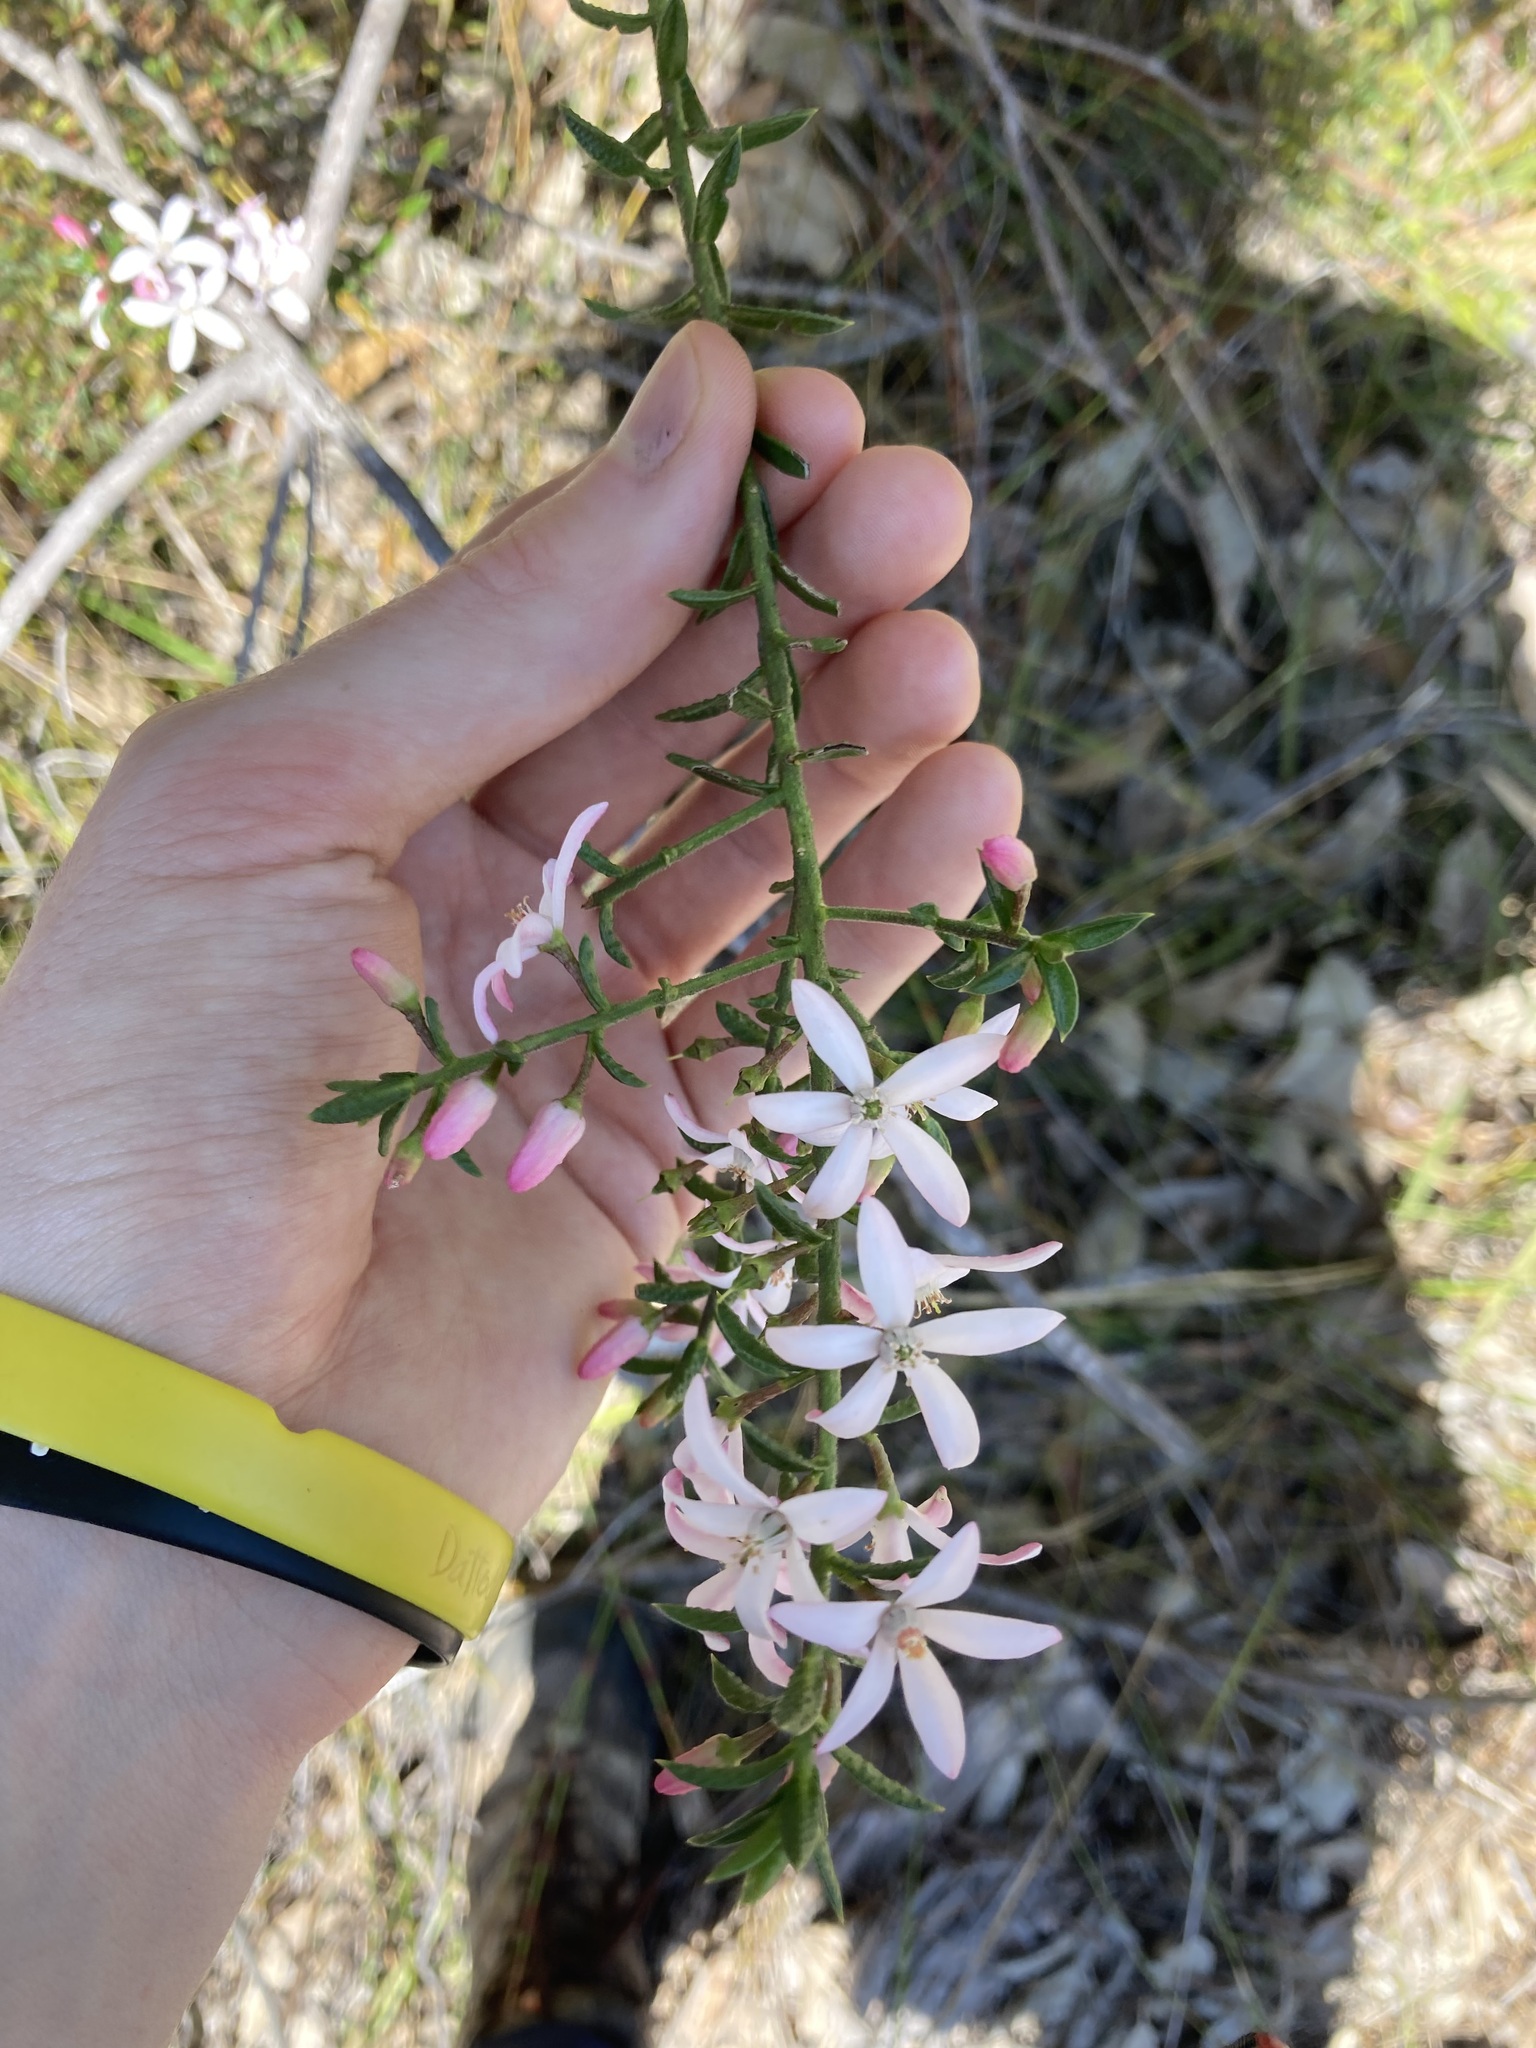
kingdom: Plantae
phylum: Tracheophyta
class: Magnoliopsida
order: Sapindales
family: Rutaceae
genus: Philotheca
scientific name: Philotheca scabra
